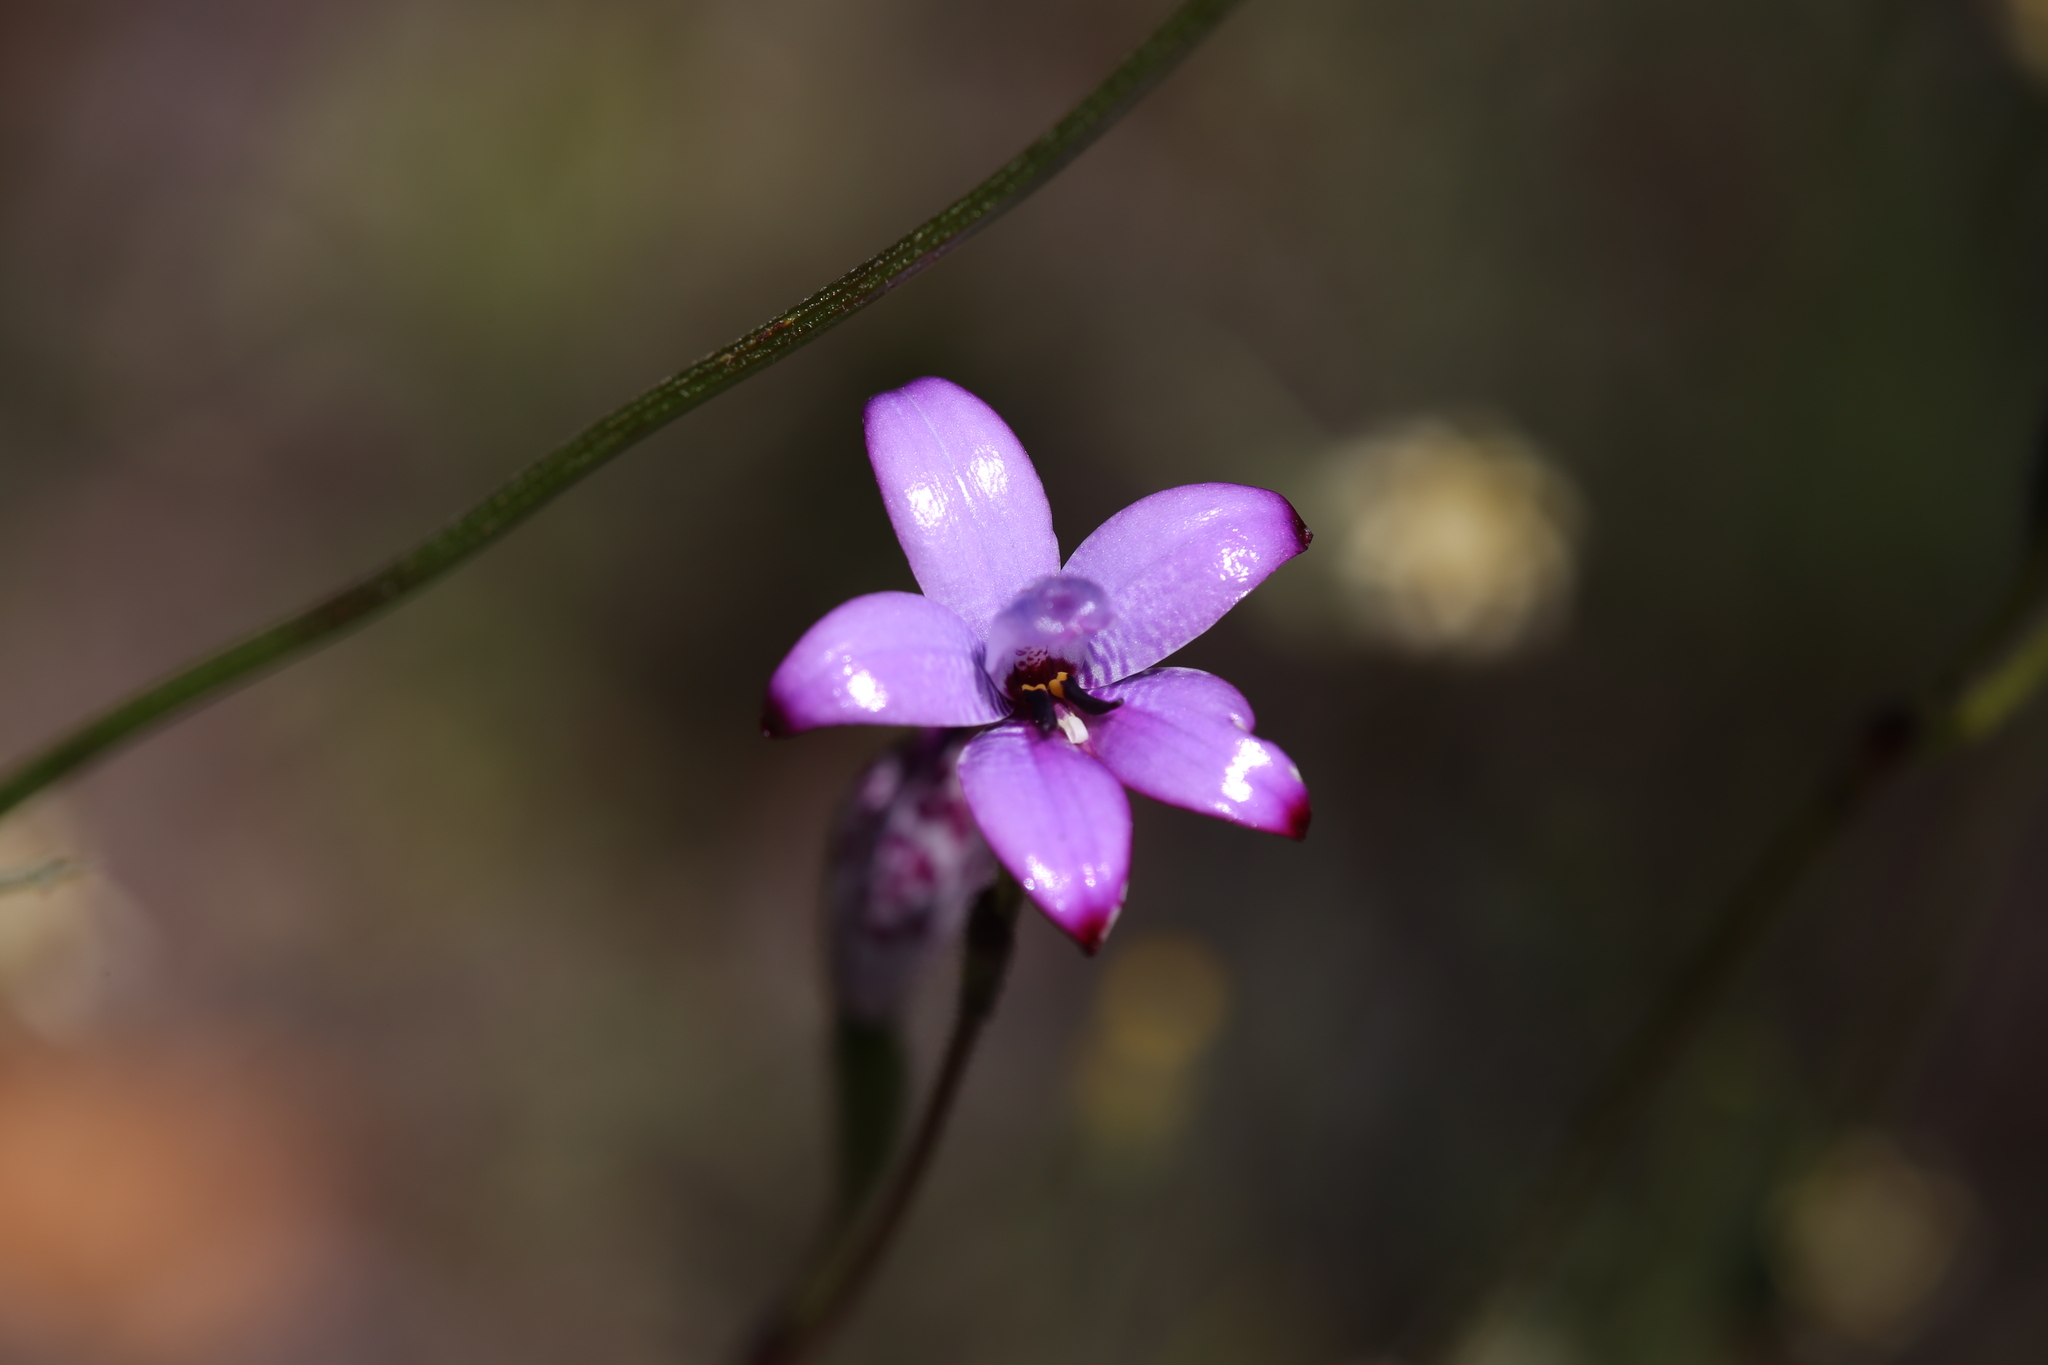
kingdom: Plantae
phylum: Tracheophyta
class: Liliopsida
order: Asparagales
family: Orchidaceae
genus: Caladenia
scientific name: Caladenia brunonis
